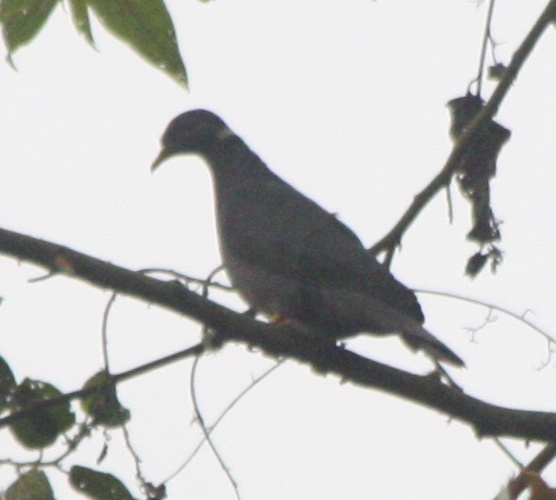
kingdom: Animalia
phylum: Chordata
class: Aves
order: Columbiformes
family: Columbidae
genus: Patagioenas
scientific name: Patagioenas fasciata
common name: Band-tailed pigeon
